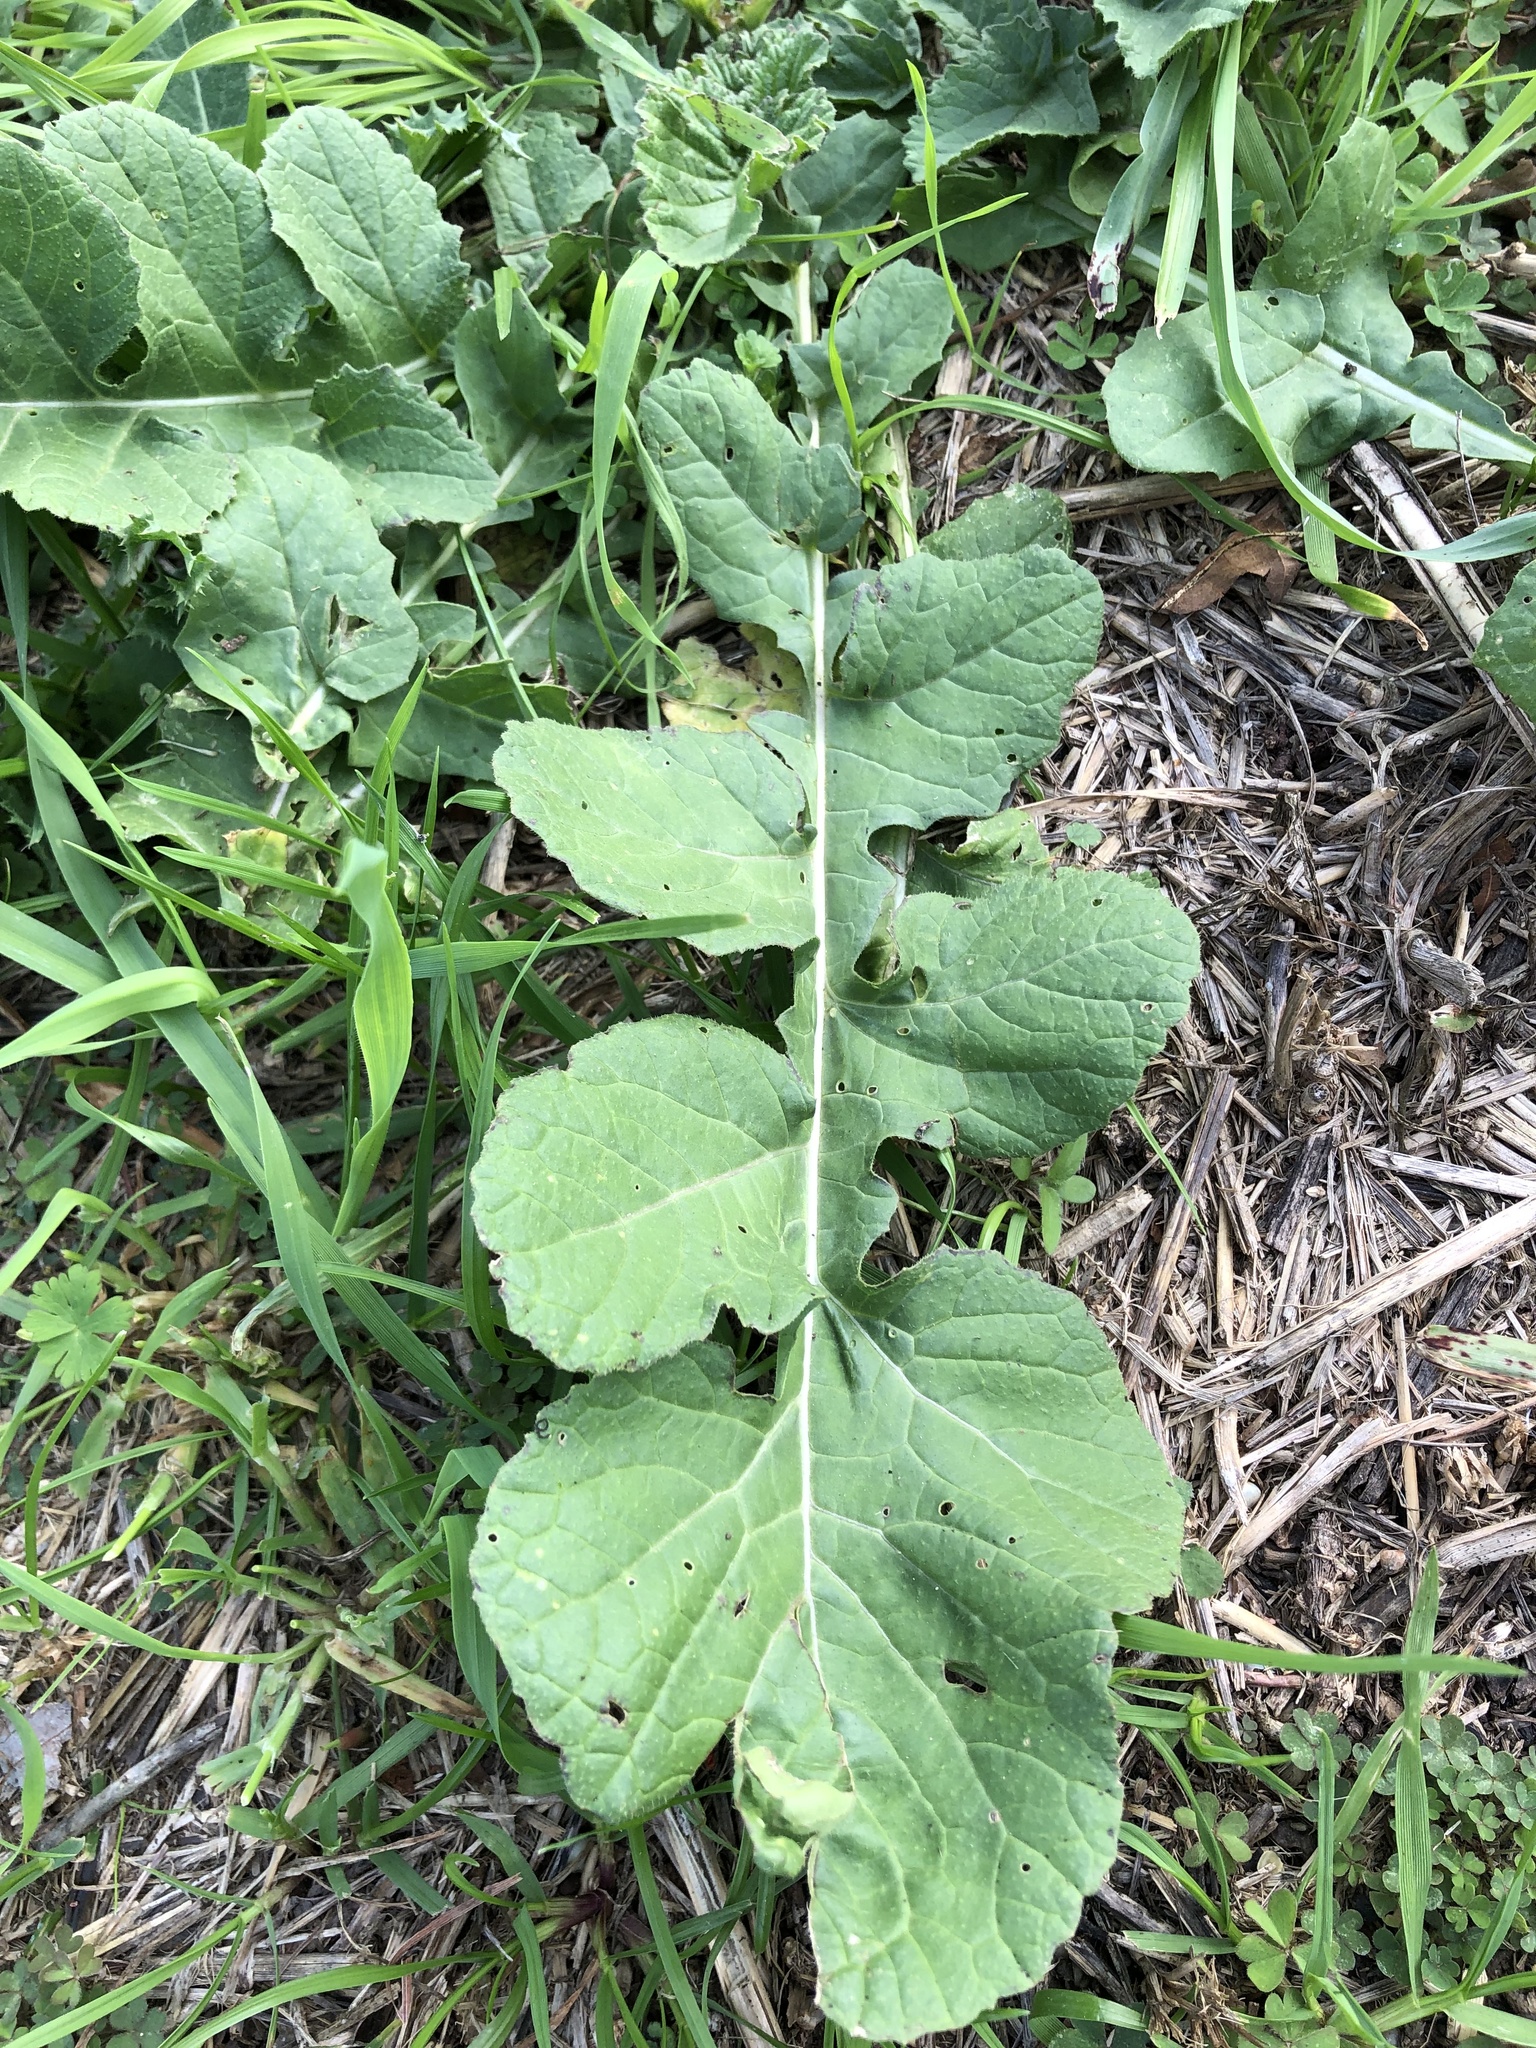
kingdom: Plantae
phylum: Tracheophyta
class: Magnoliopsida
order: Brassicales
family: Brassicaceae
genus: Rapistrum
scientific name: Rapistrum rugosum
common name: Annual bastardcabbage
